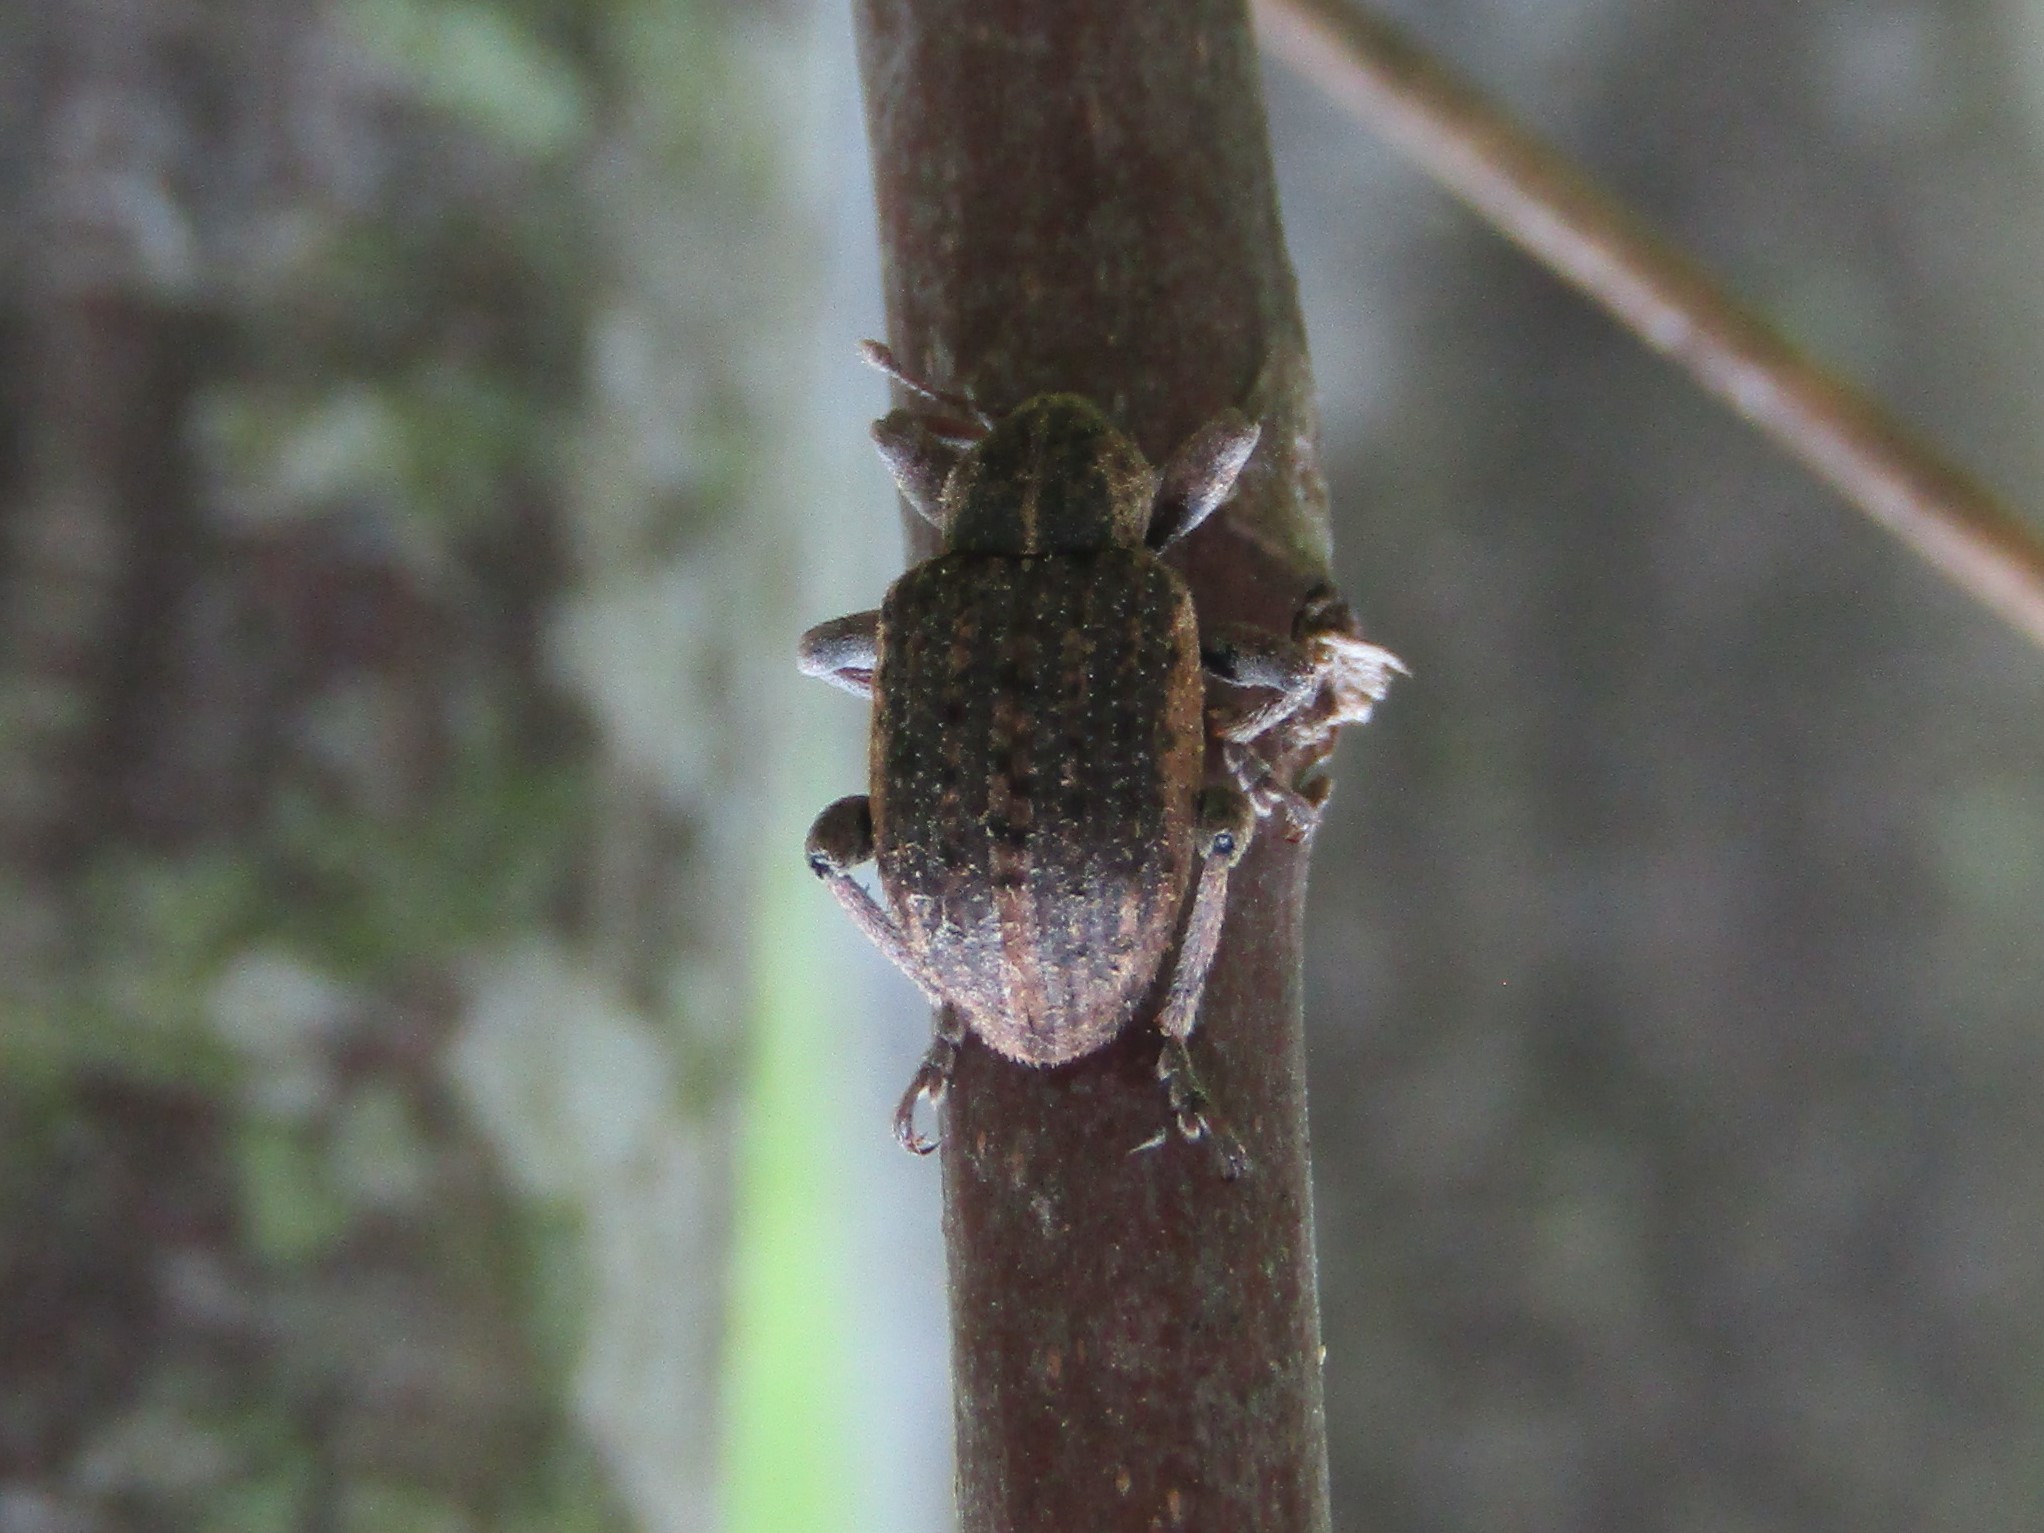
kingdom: Animalia
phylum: Arthropoda
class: Insecta
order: Coleoptera
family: Curculionidae
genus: Brachypera
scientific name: Brachypera zoilus
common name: Clover leaf weevil
